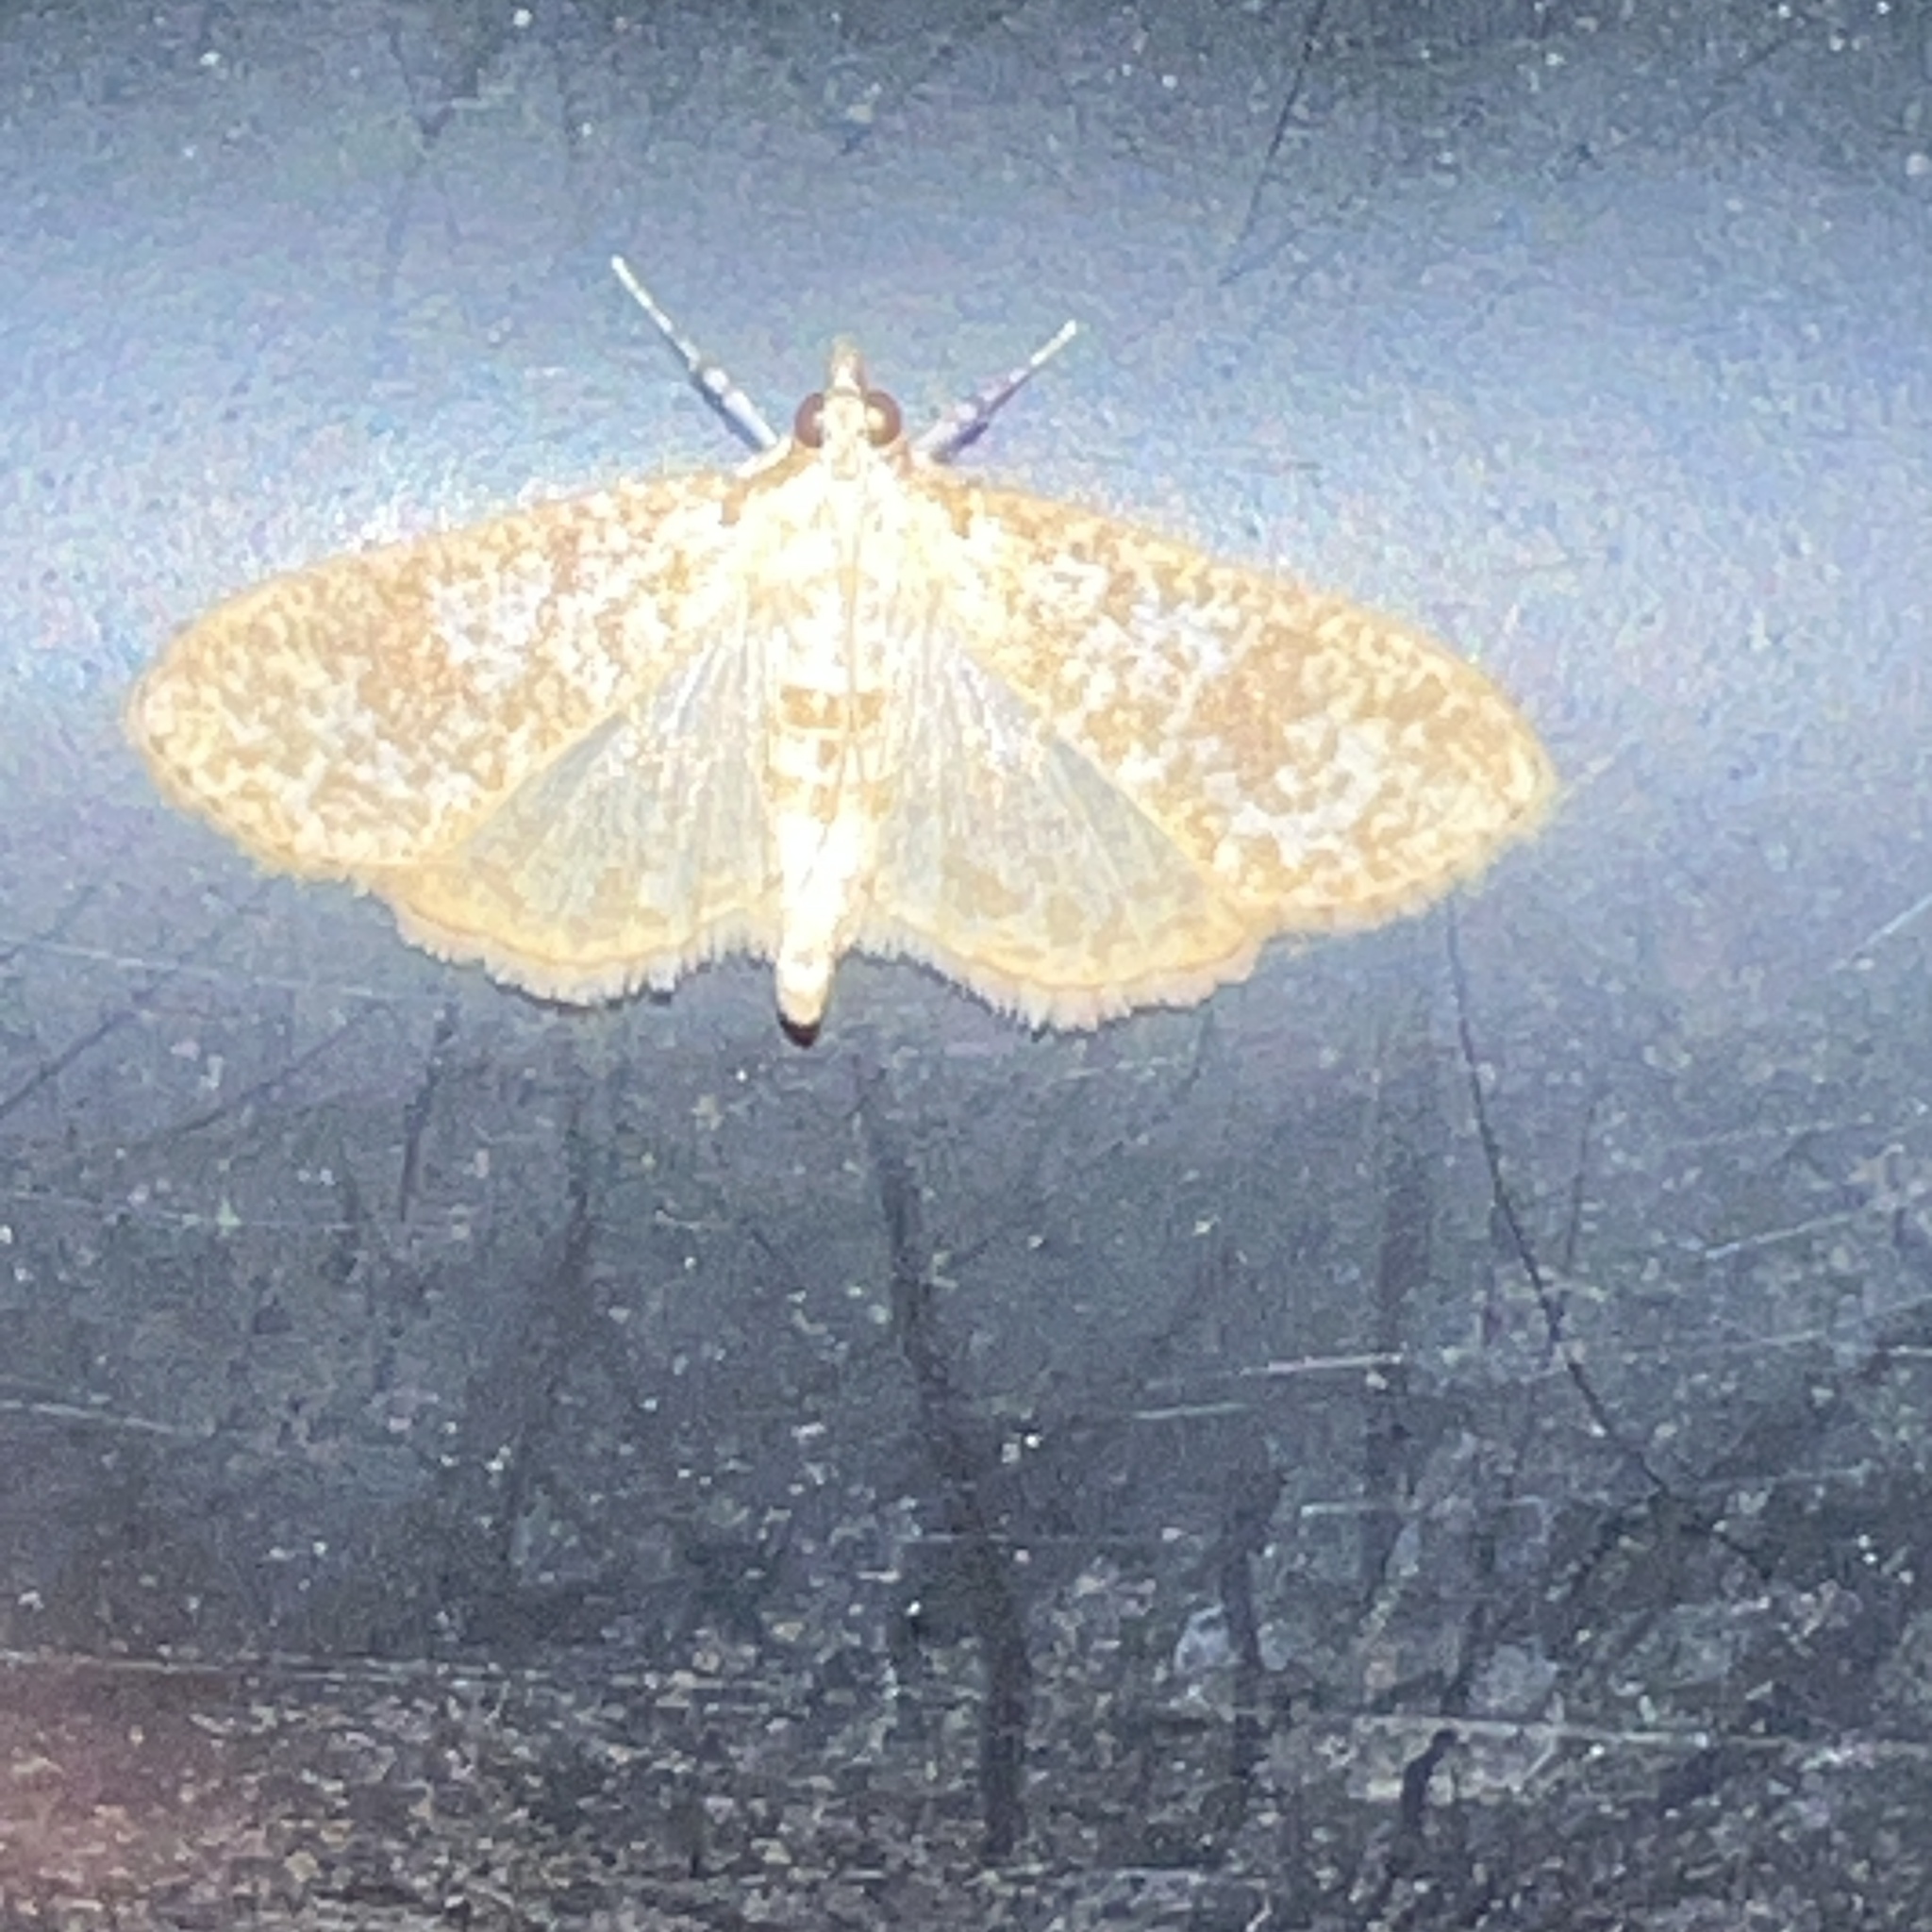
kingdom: Animalia
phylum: Arthropoda
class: Insecta
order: Lepidoptera
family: Crambidae
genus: Palpita
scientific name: Palpita freemanalis
